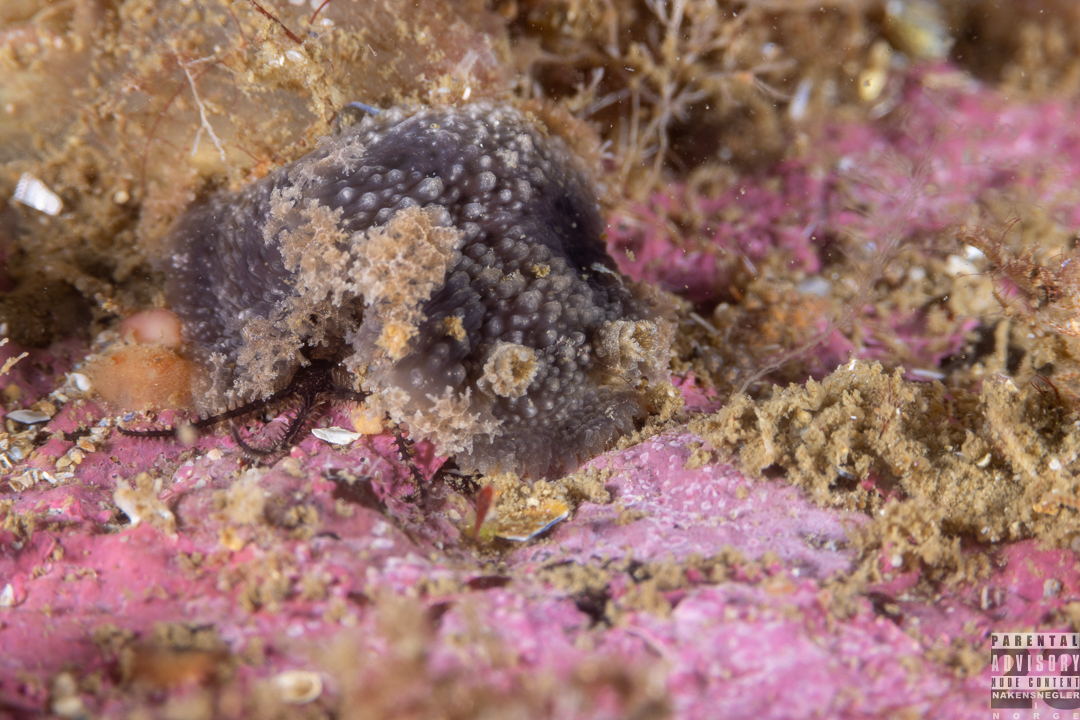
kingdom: Animalia
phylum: Mollusca
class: Gastropoda
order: Nudibranchia
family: Tritoniidae
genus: Tritonia
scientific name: Tritonia hombergii
